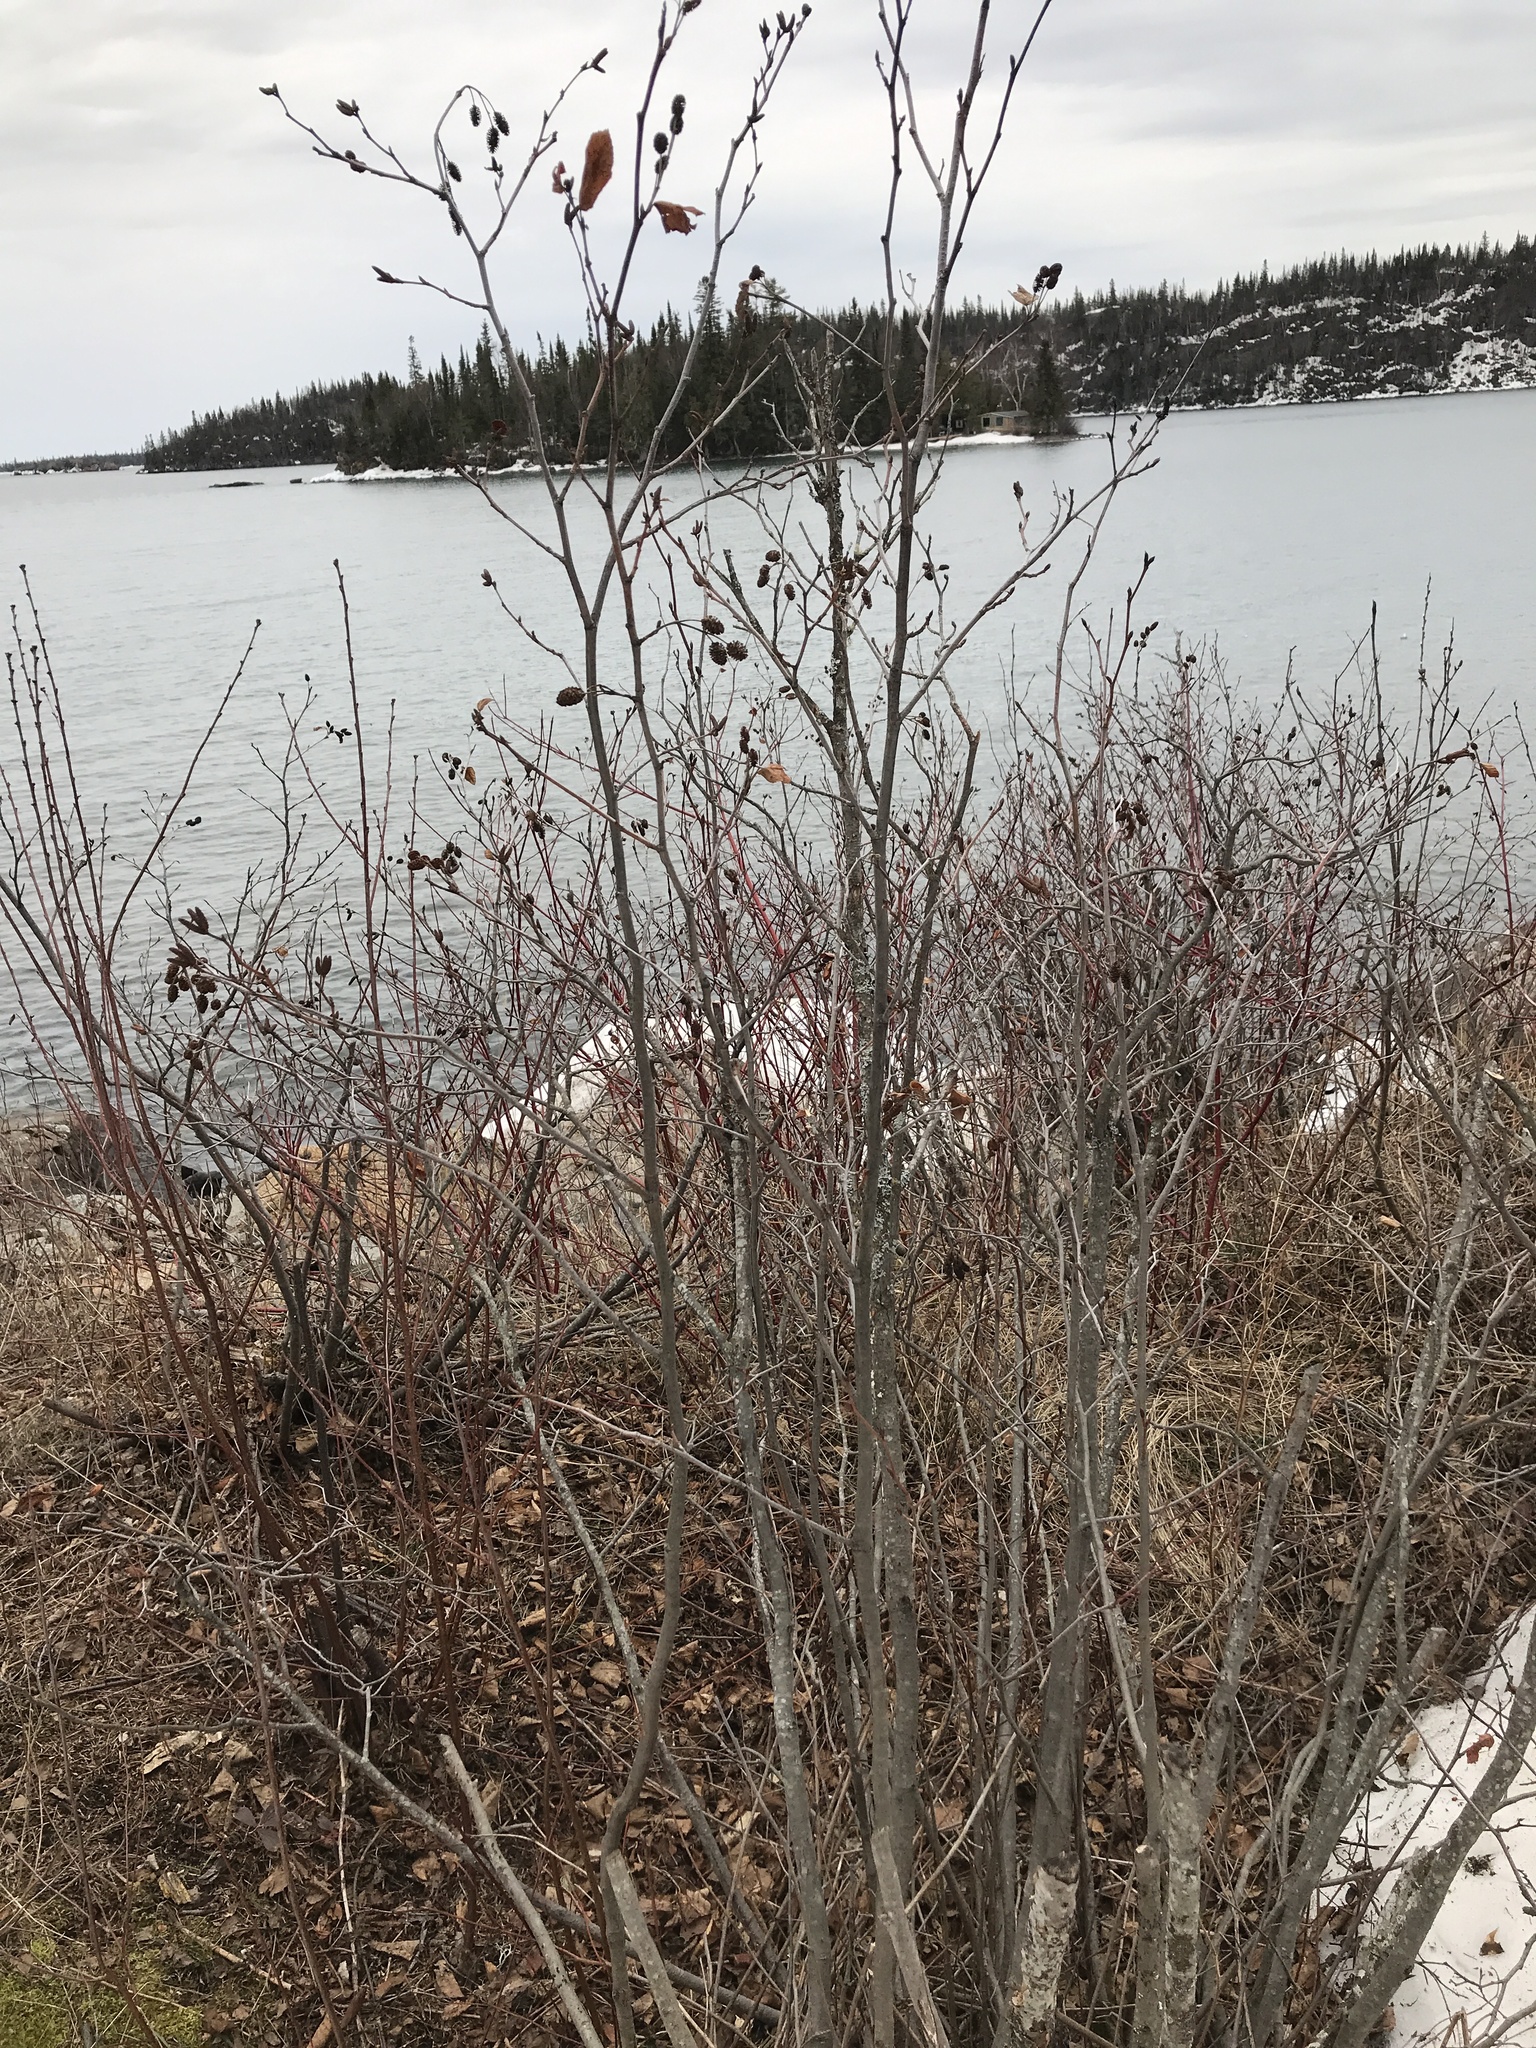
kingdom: Plantae
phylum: Tracheophyta
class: Magnoliopsida
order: Fagales
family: Betulaceae
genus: Alnus
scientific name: Alnus alnobetula
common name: Green alder
